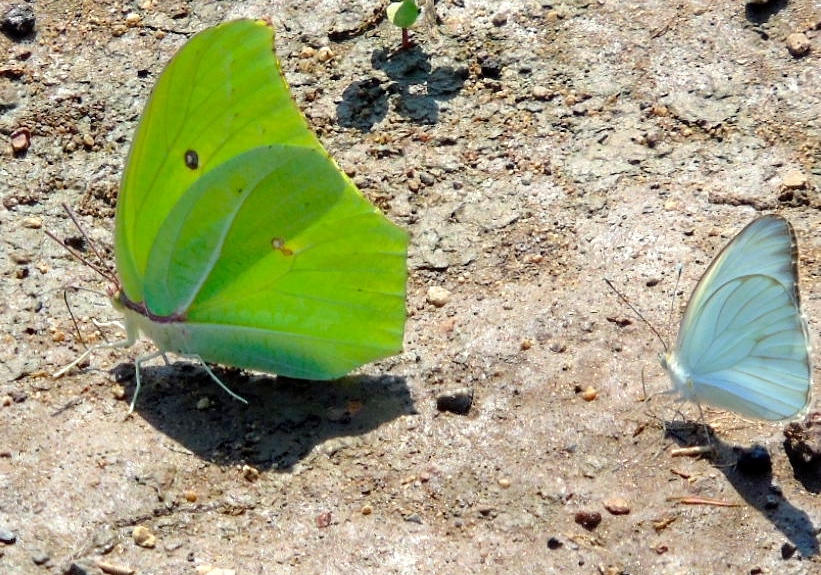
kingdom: Animalia
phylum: Arthropoda
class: Insecta
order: Lepidoptera
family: Pieridae
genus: Anteos
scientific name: Anteos maerula
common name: Angled sulphur
